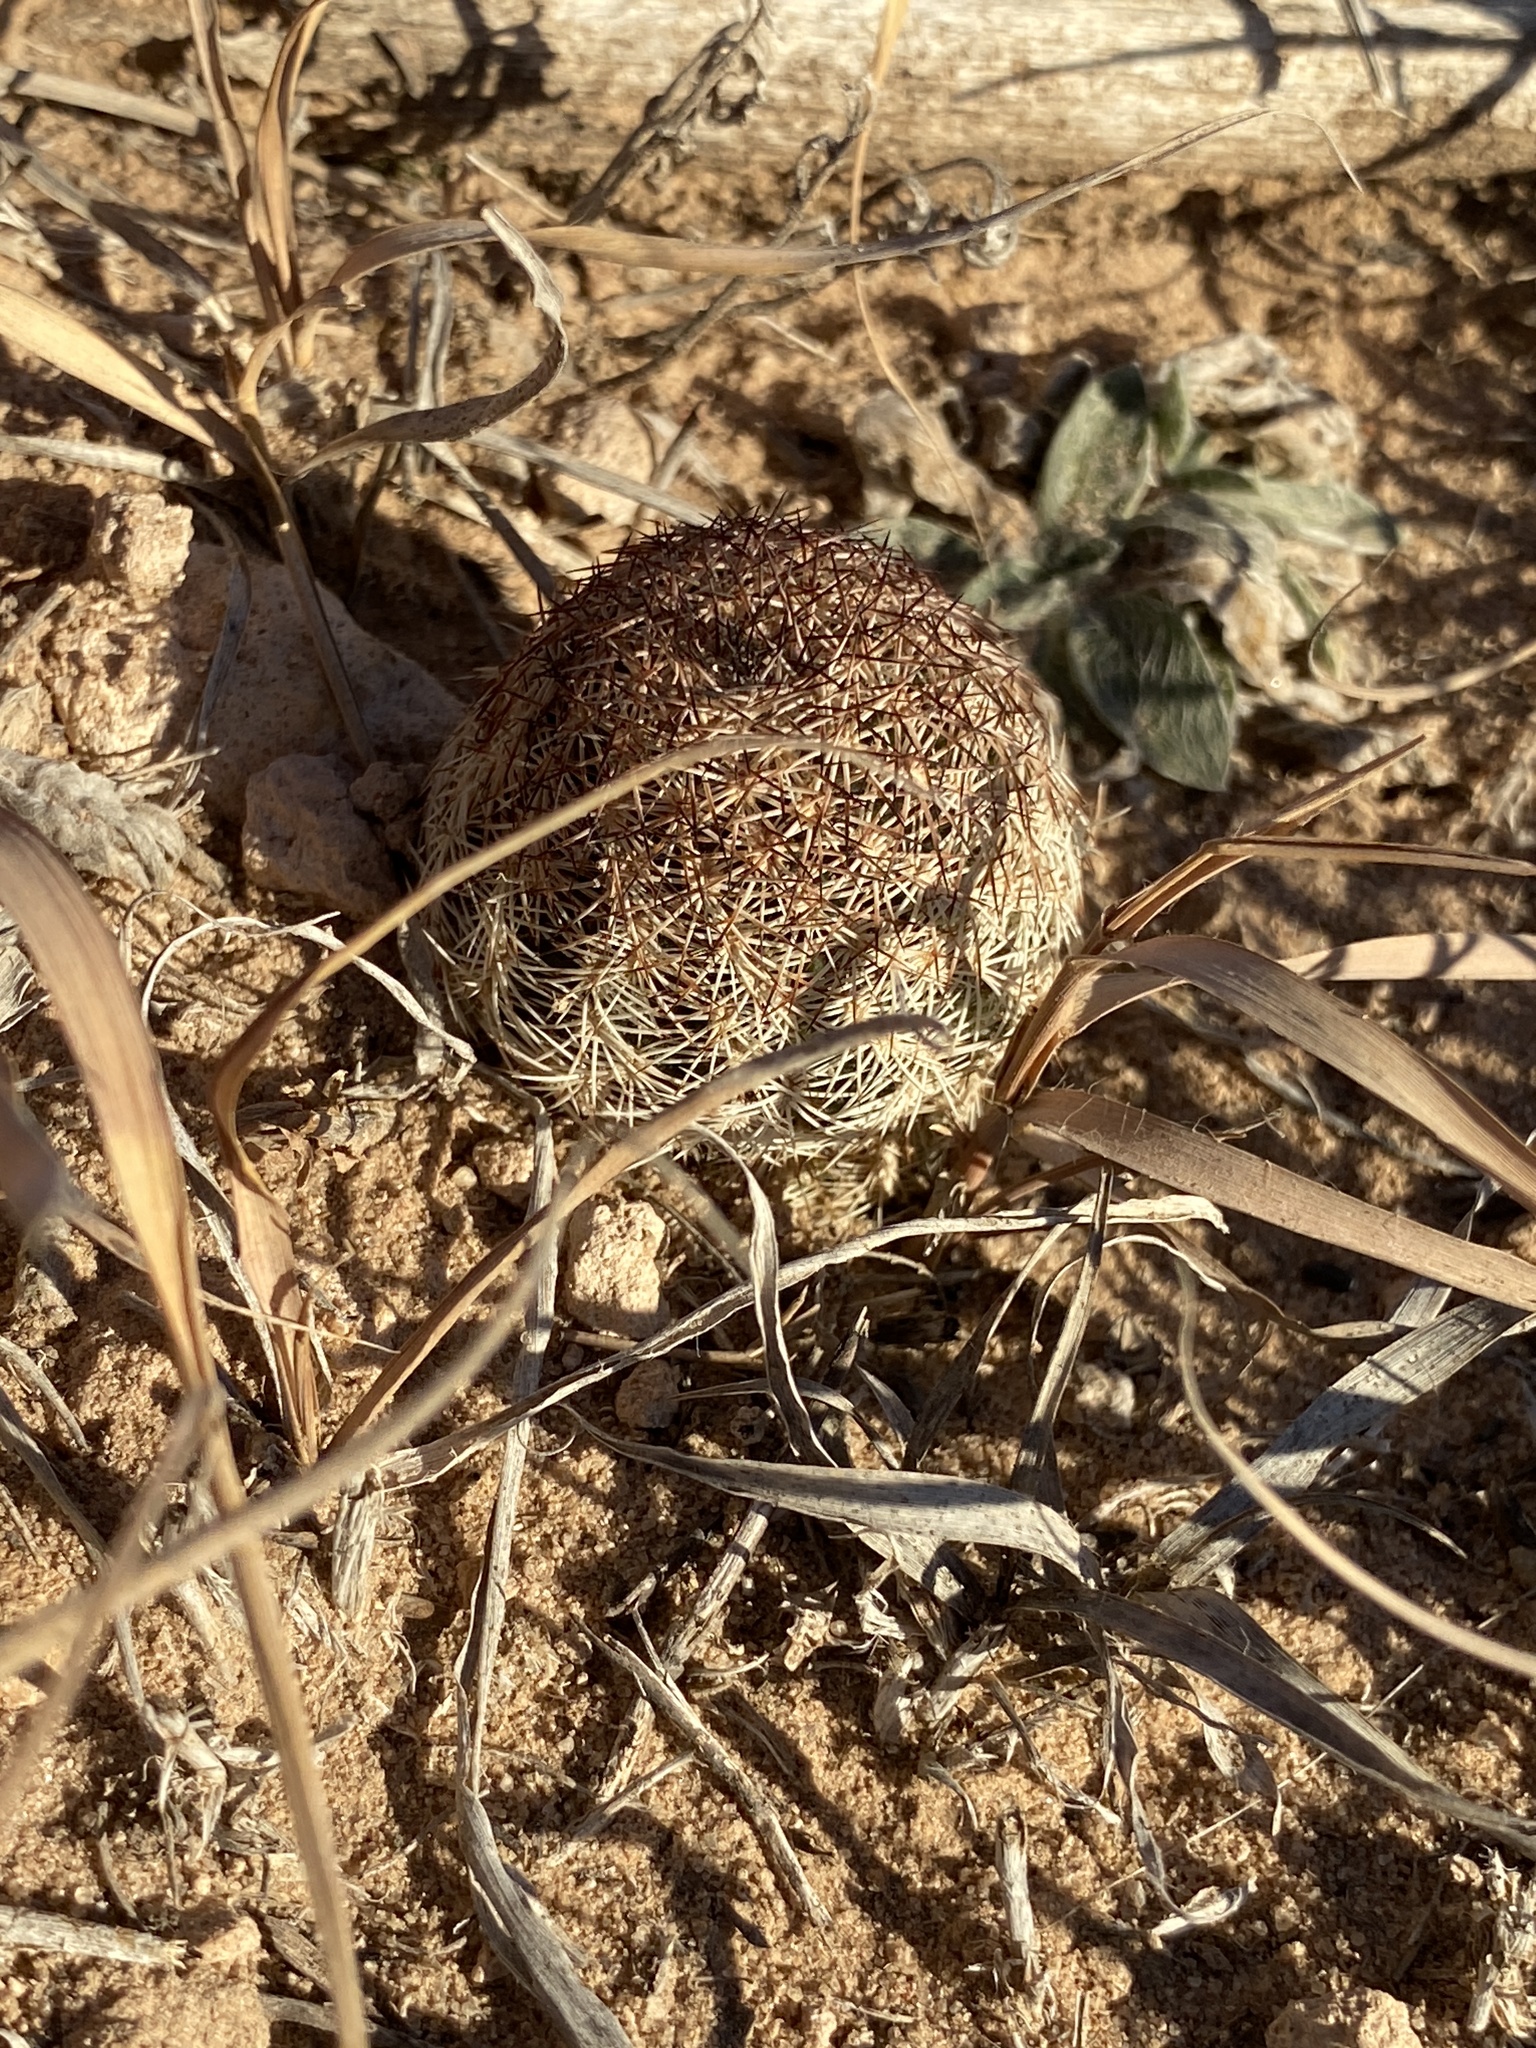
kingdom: Plantae
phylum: Tracheophyta
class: Magnoliopsida
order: Caryophyllales
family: Cactaceae
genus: Echinocereus
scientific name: Echinocereus reichenbachii
